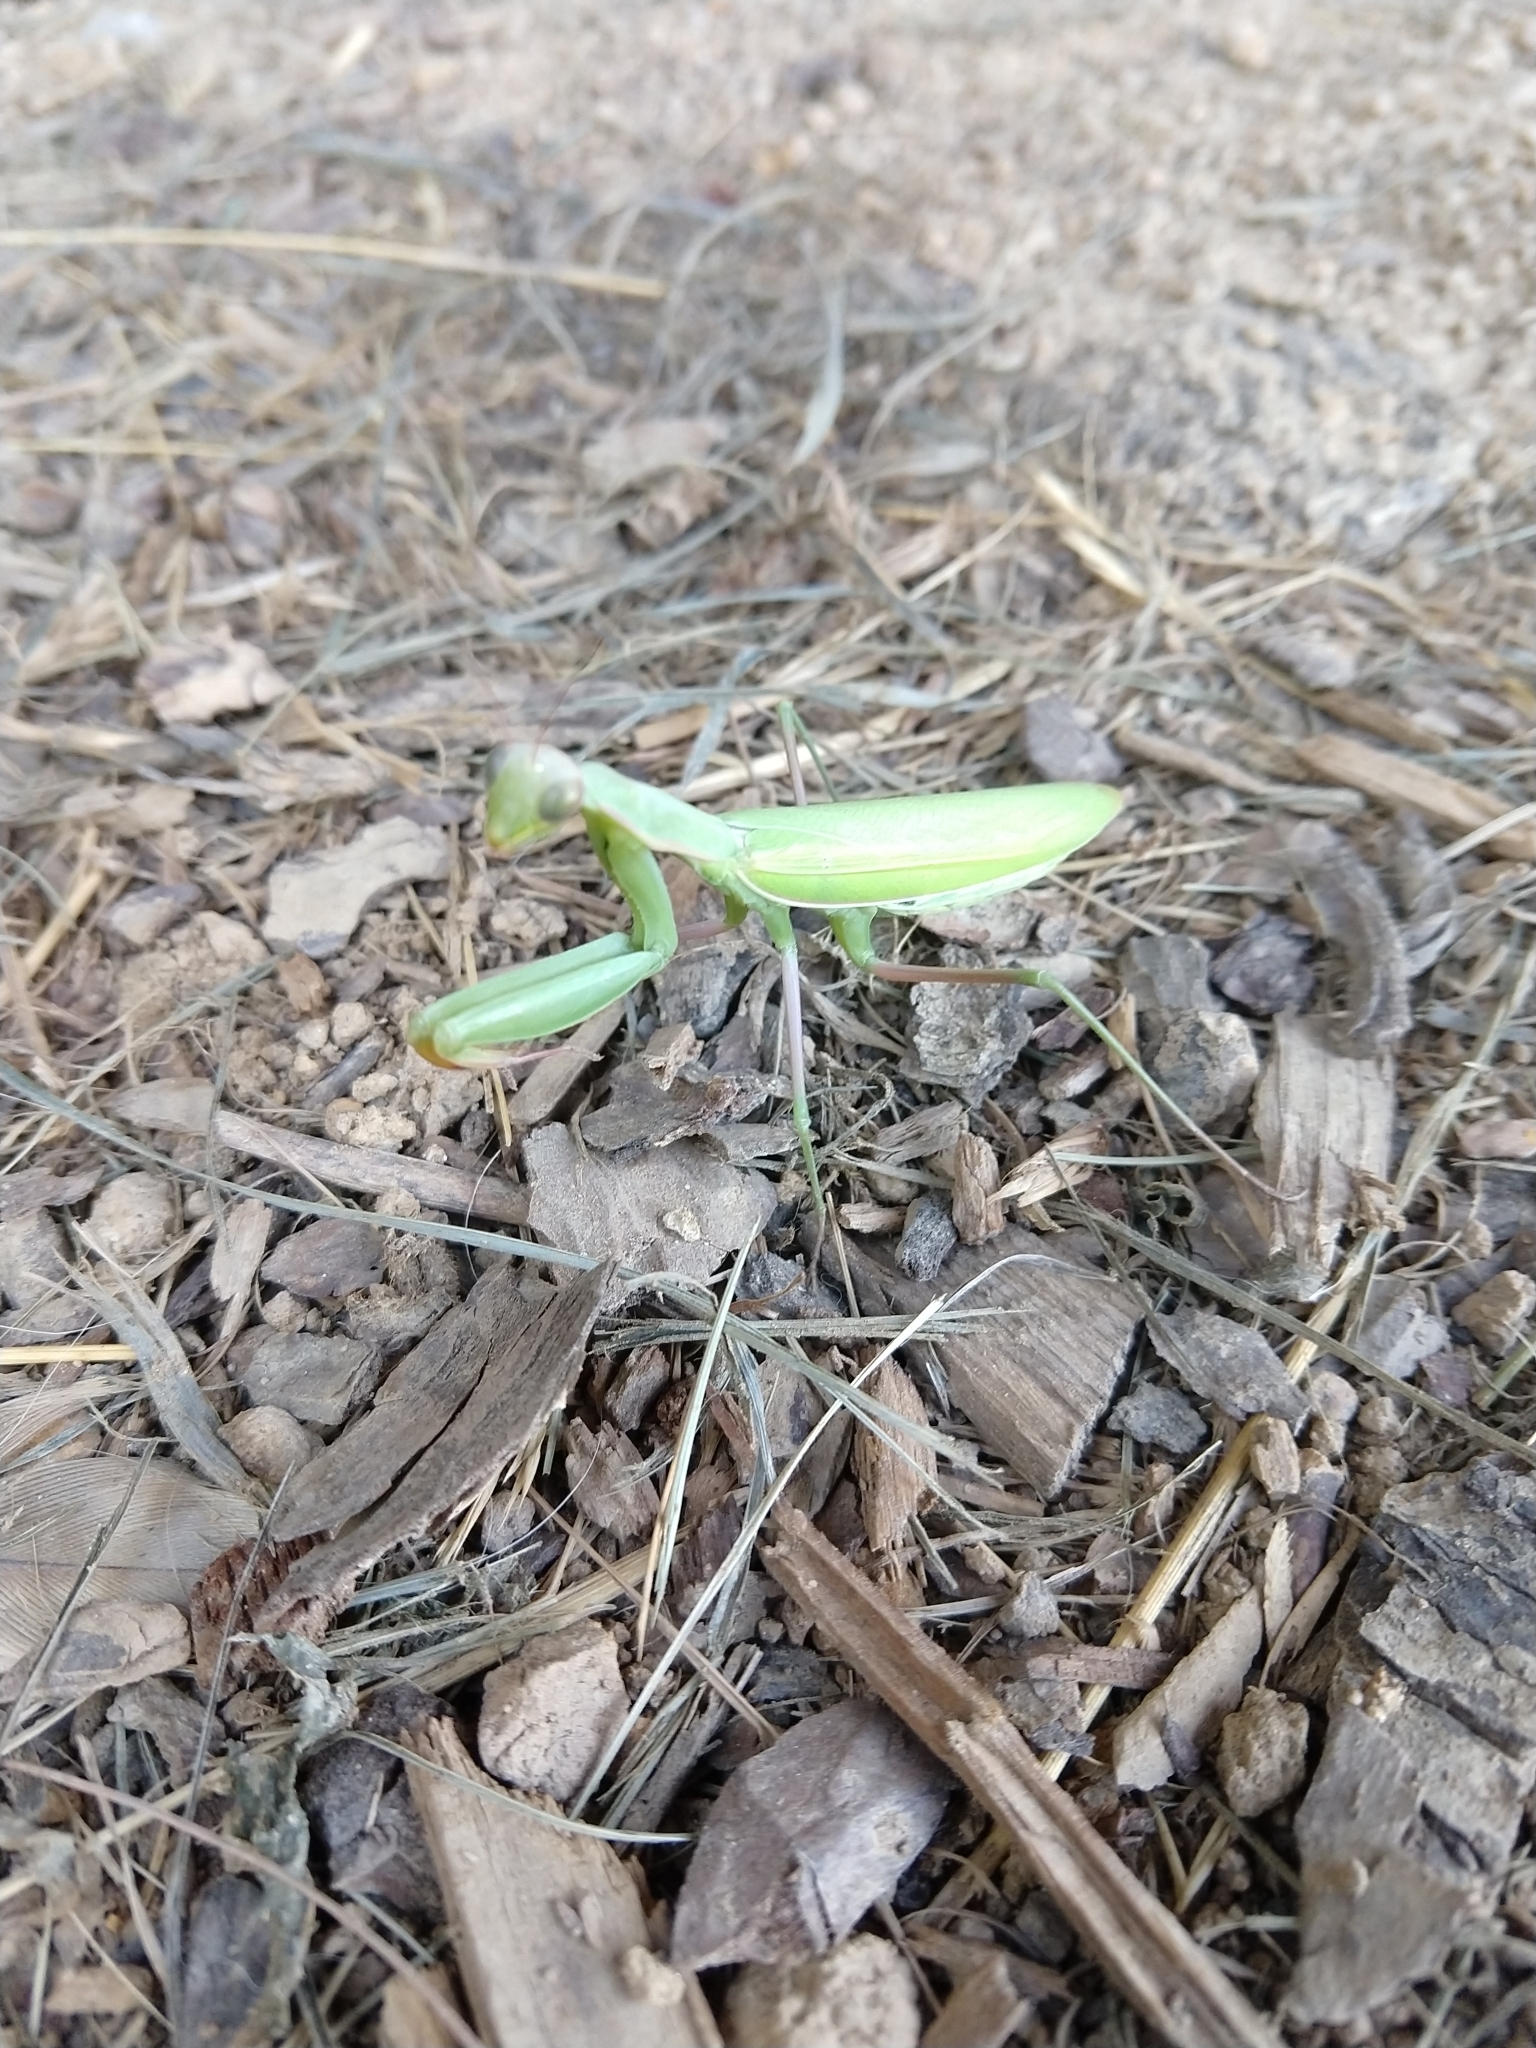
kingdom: Animalia
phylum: Arthropoda
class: Insecta
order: Mantodea
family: Mantidae
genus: Mantis
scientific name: Mantis religiosa
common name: Praying mantis
